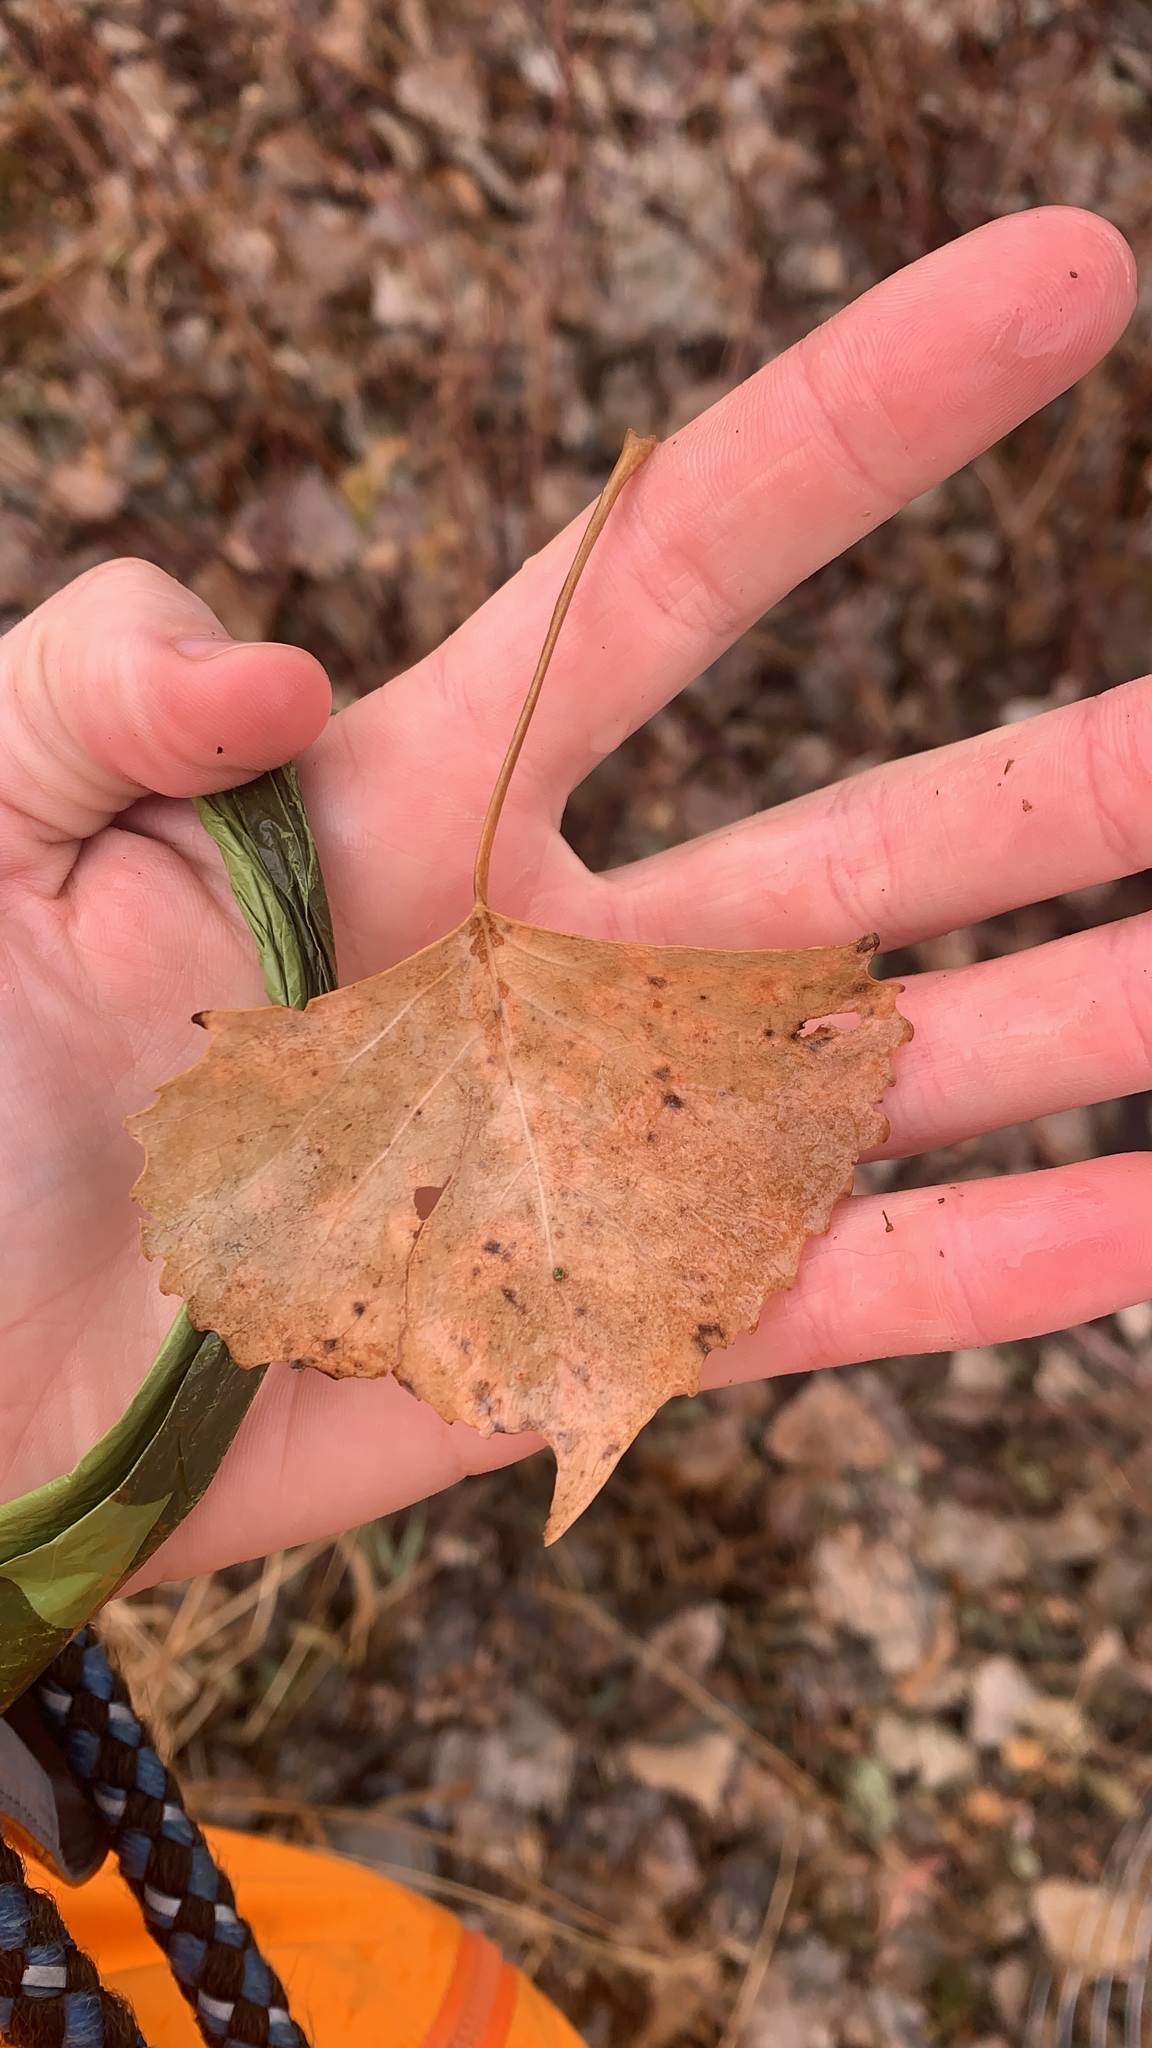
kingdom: Plantae
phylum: Tracheophyta
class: Magnoliopsida
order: Malpighiales
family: Salicaceae
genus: Populus
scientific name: Populus deltoides
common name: Eastern cottonwood
